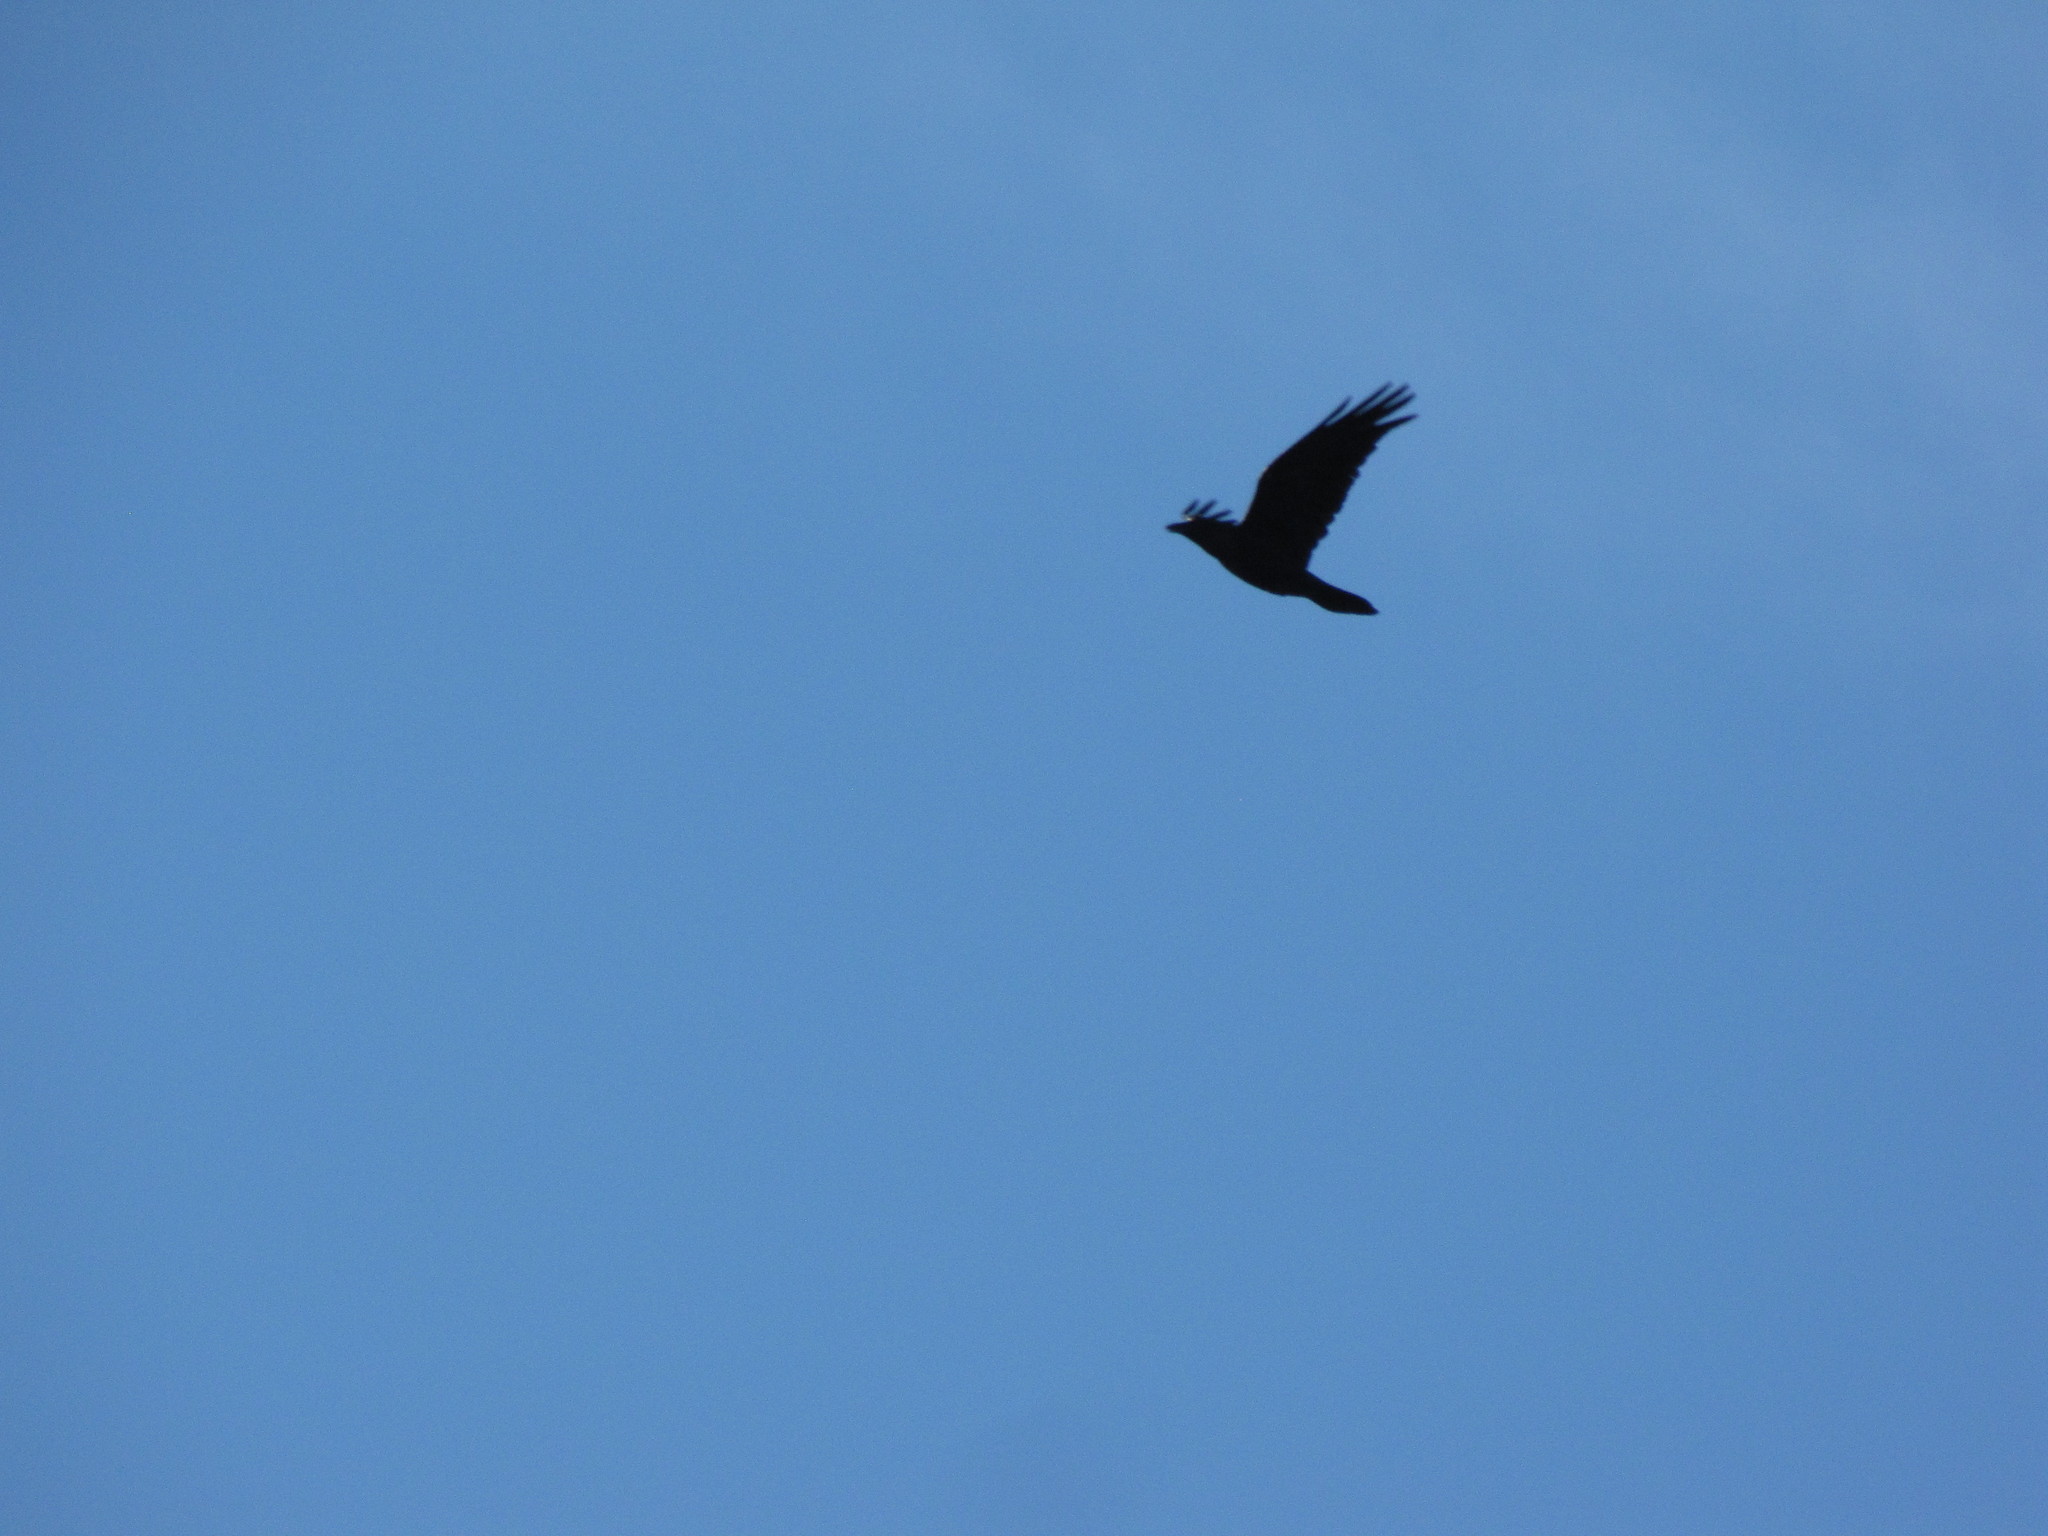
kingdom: Animalia
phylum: Chordata
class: Aves
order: Passeriformes
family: Corvidae
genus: Corvus
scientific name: Corvus brachyrhynchos
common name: American crow
